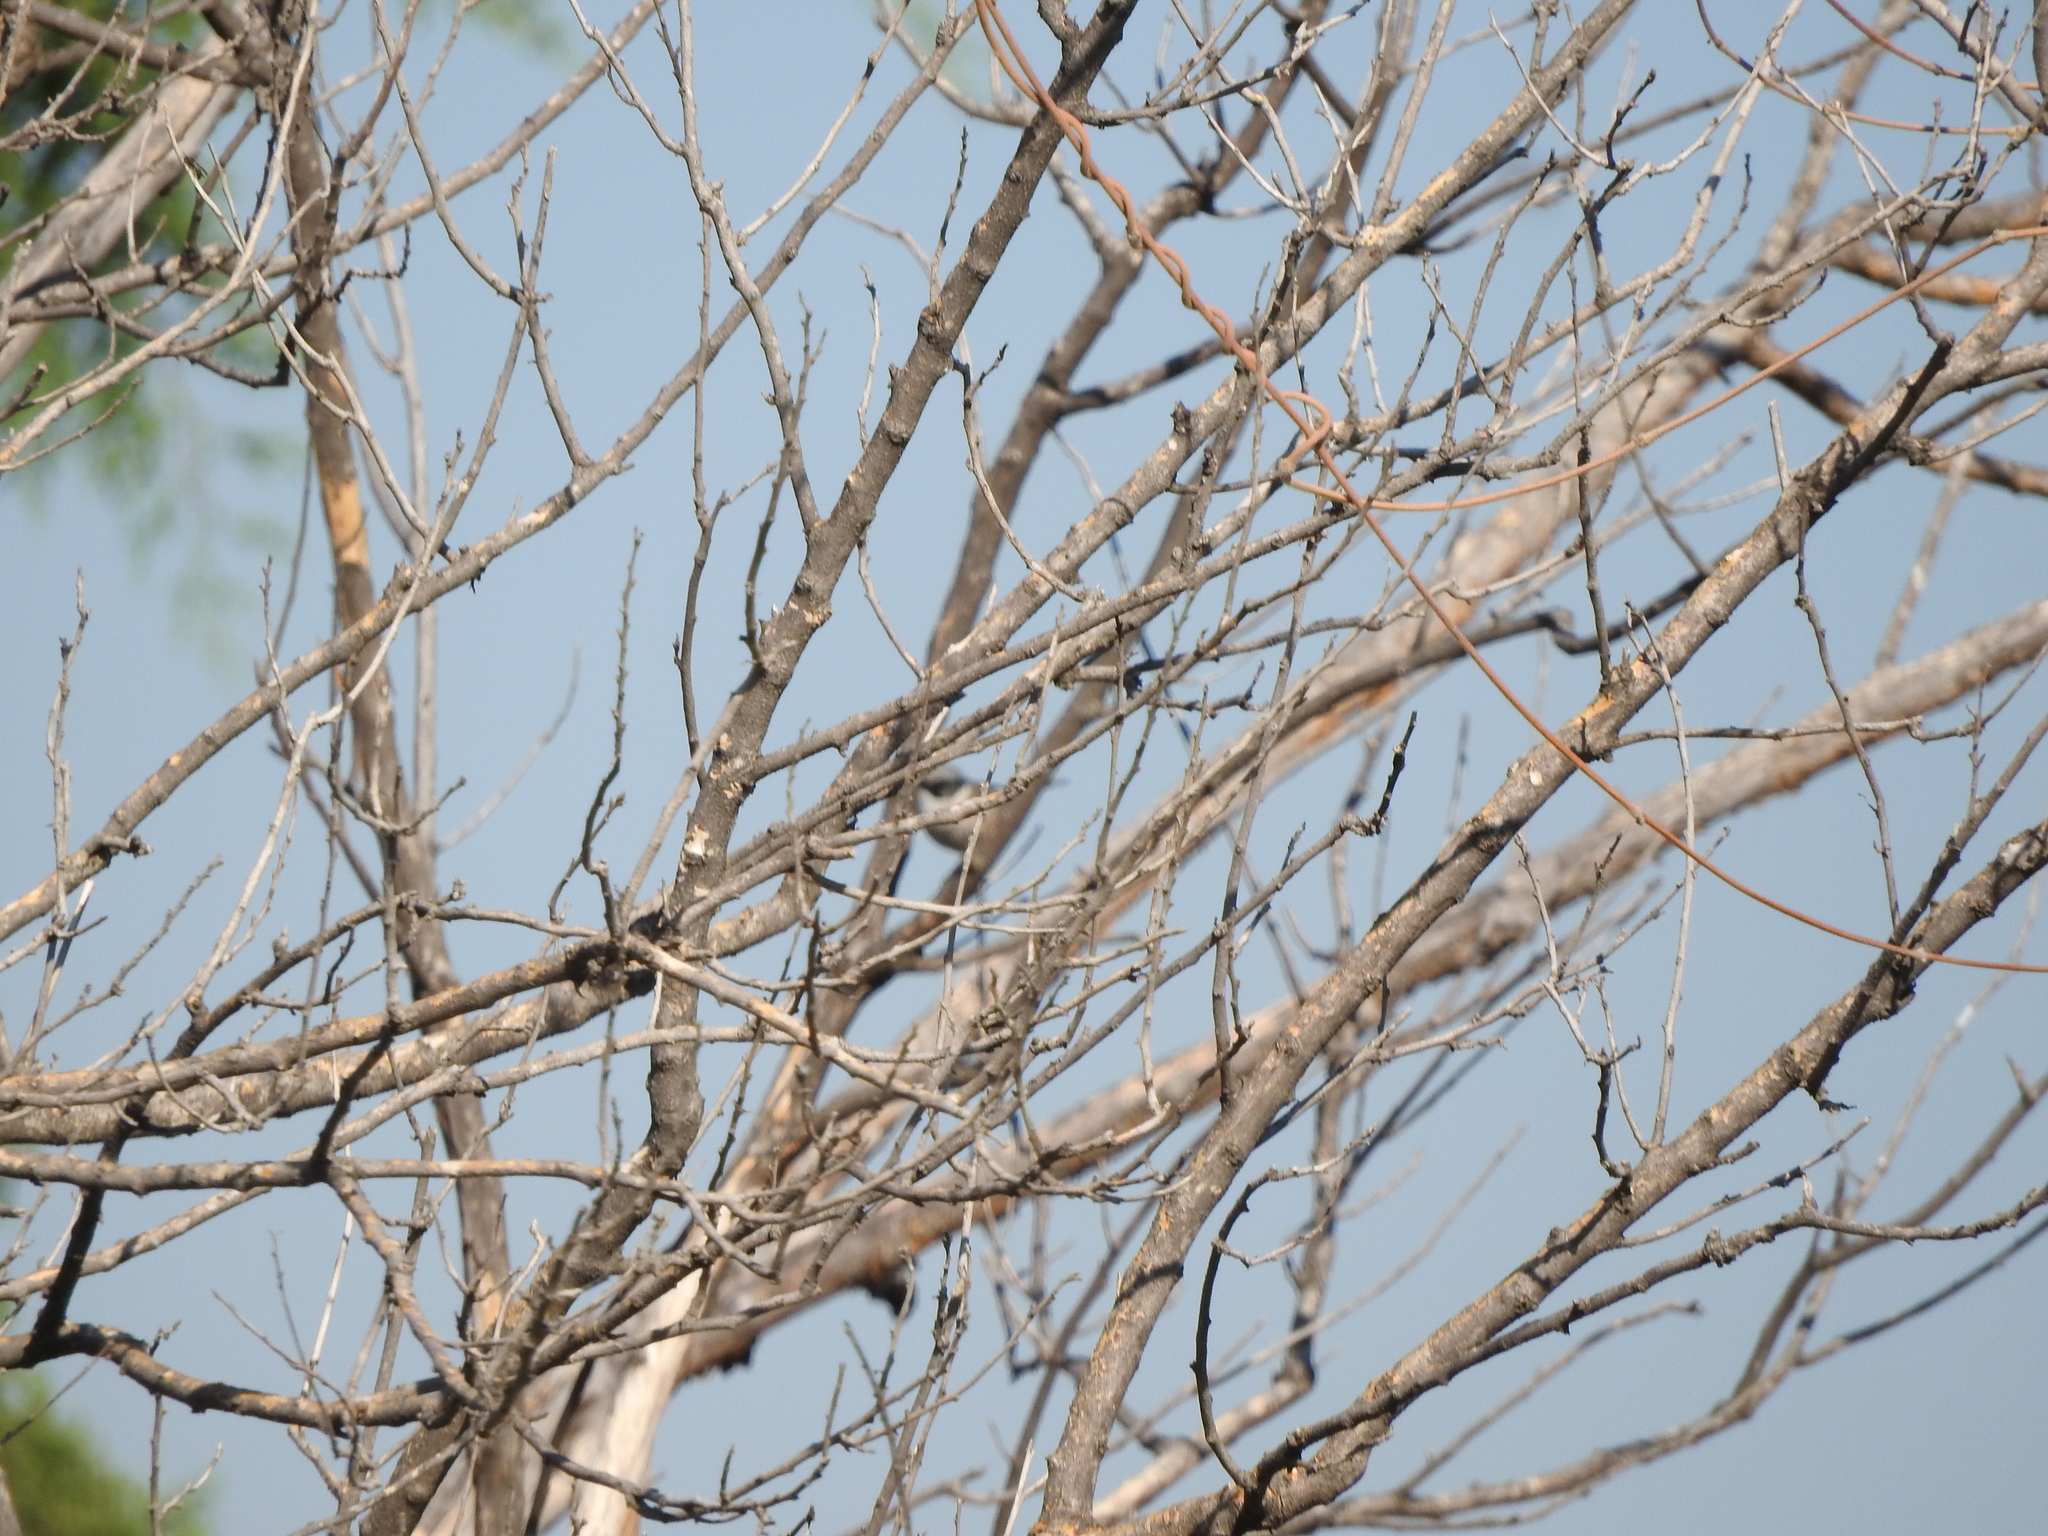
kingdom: Animalia
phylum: Chordata
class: Aves
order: Passeriformes
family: Aegithalidae
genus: Psaltriparus
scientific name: Psaltriparus minimus
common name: American bushtit
